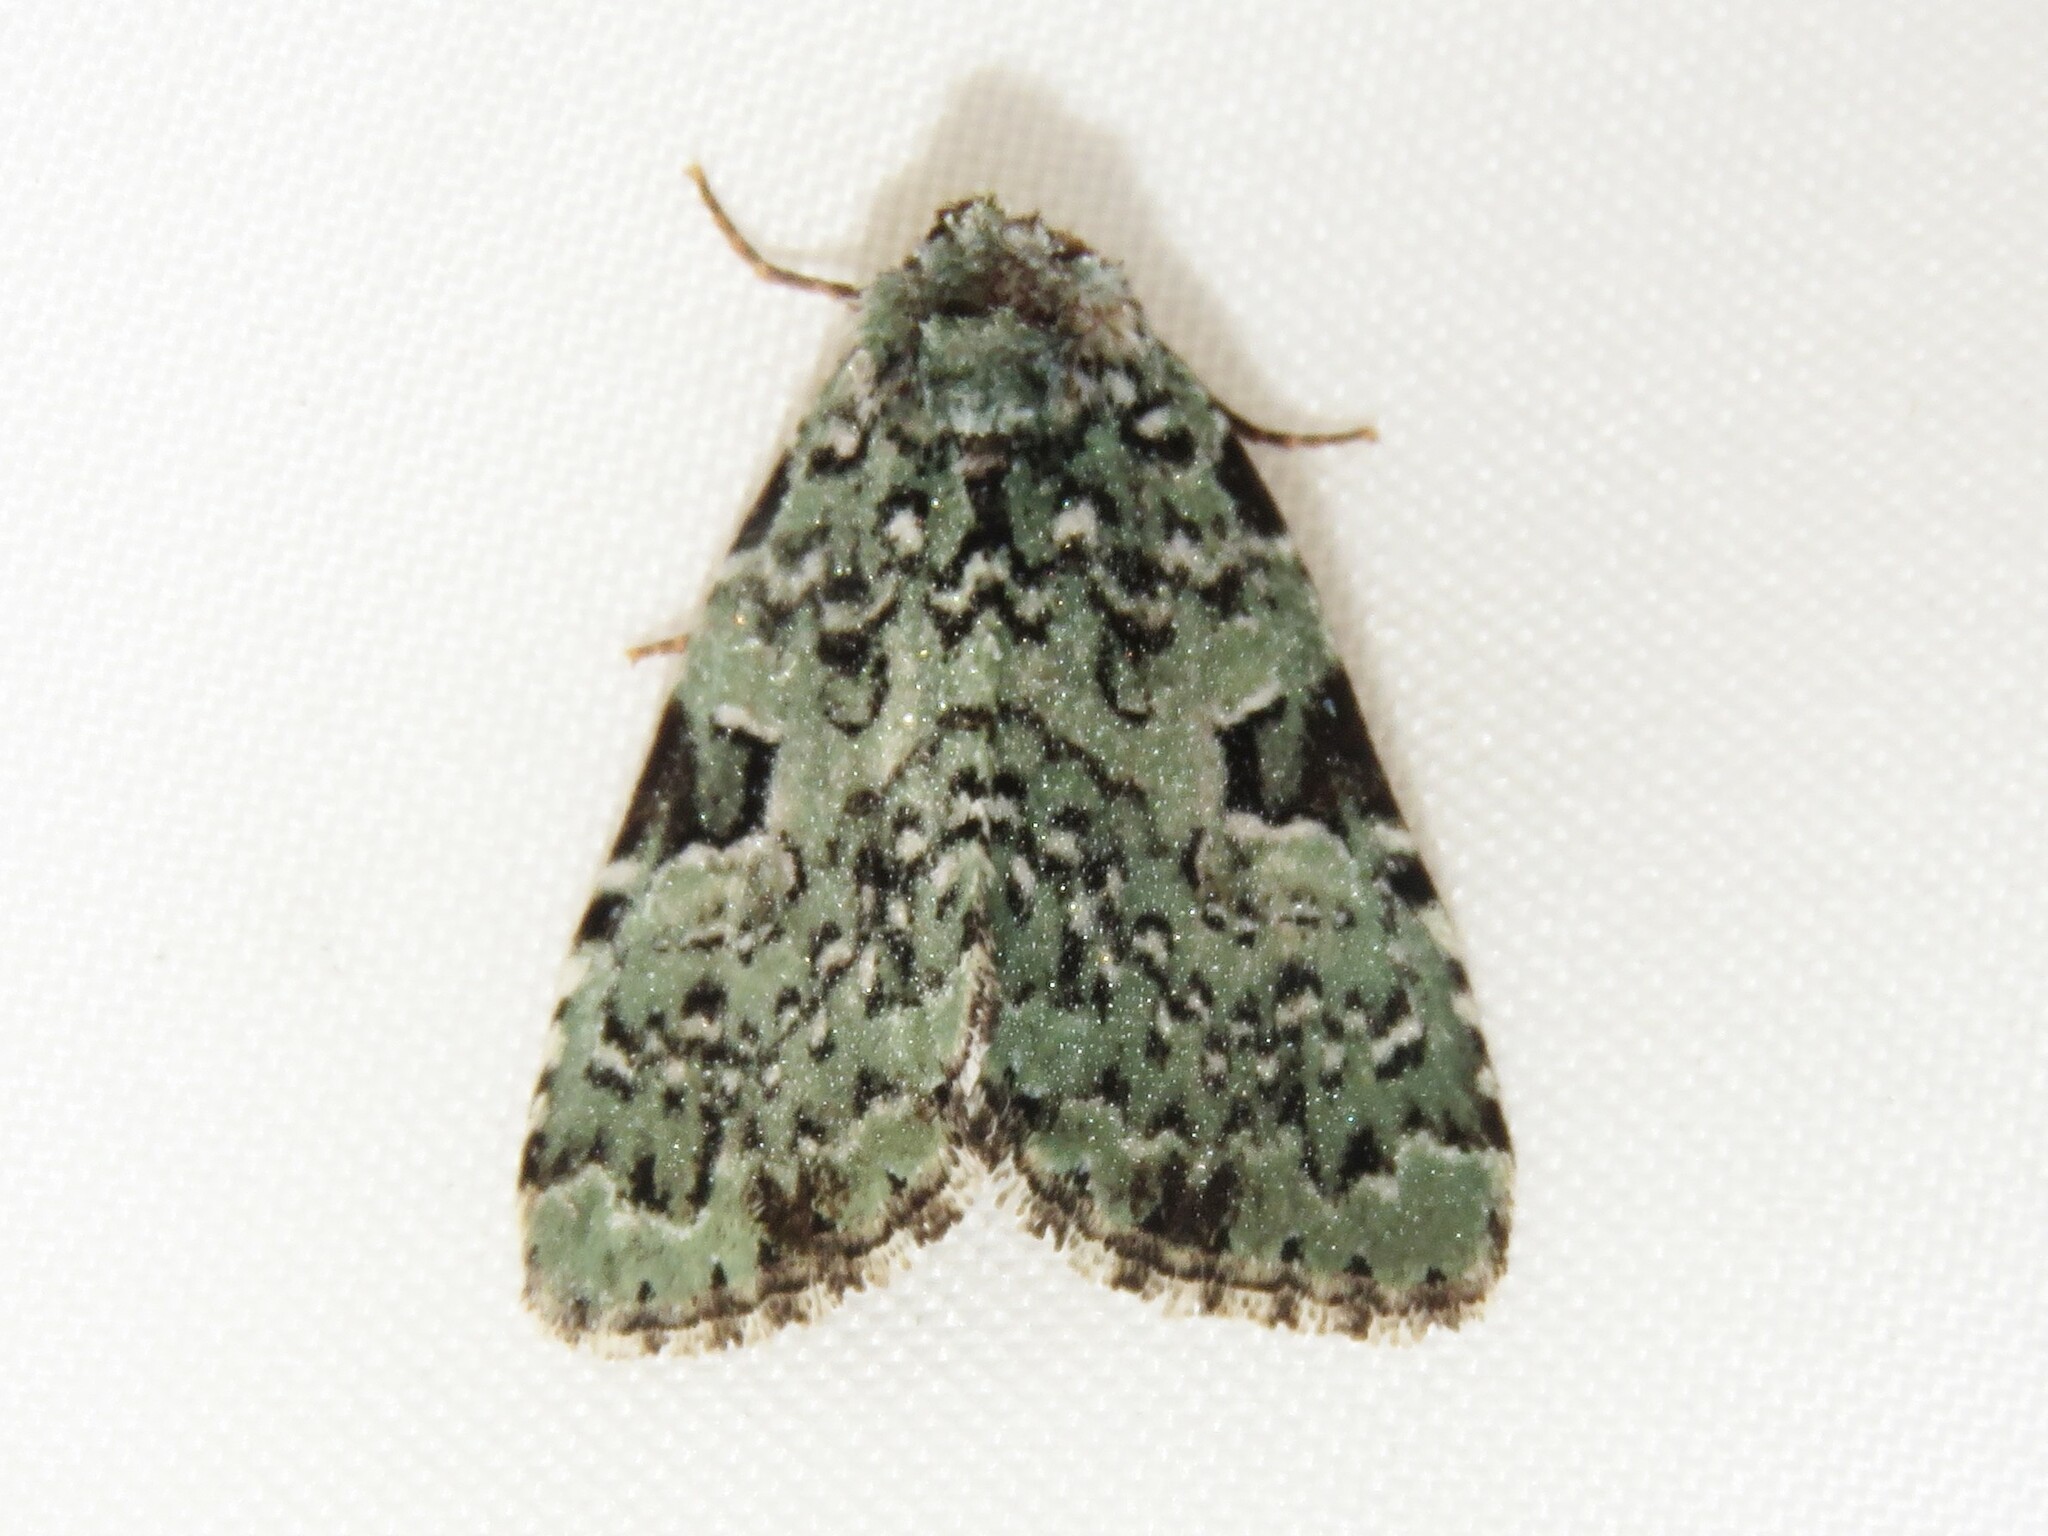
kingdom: Animalia
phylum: Arthropoda
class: Insecta
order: Lepidoptera
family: Noctuidae
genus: Leuconycta
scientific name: Leuconycta diphteroides
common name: Green leuconycta moth
